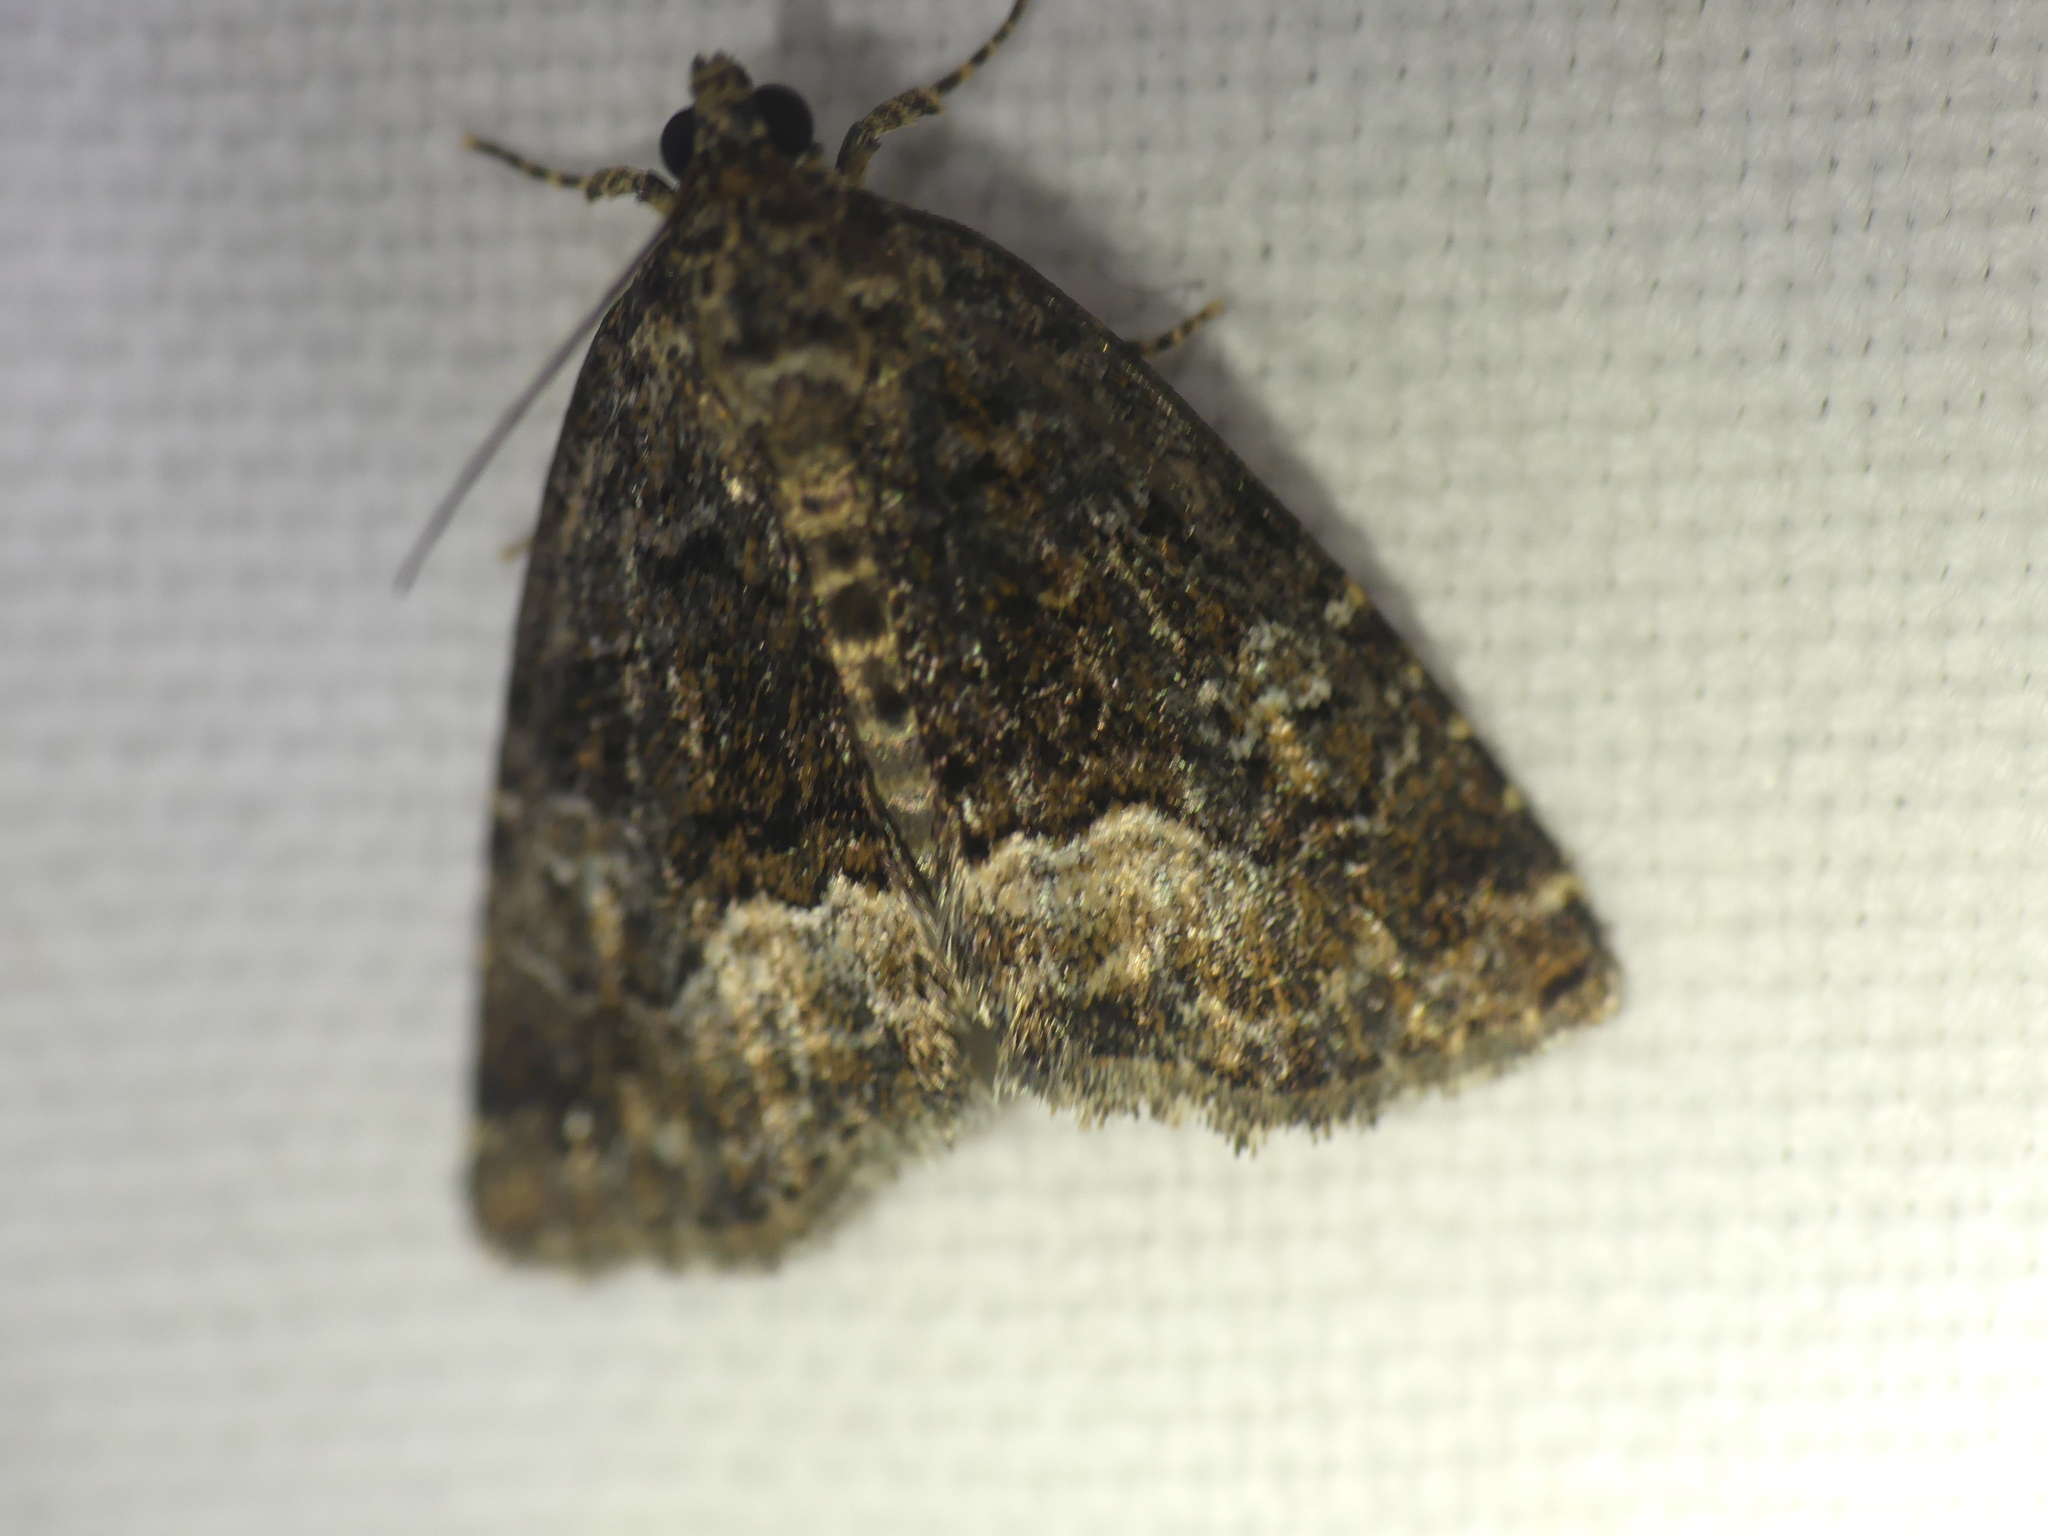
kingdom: Animalia
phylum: Arthropoda
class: Insecta
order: Lepidoptera
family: Noctuidae
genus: Deltote
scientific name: Deltote pygarga
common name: Marbled white spot
